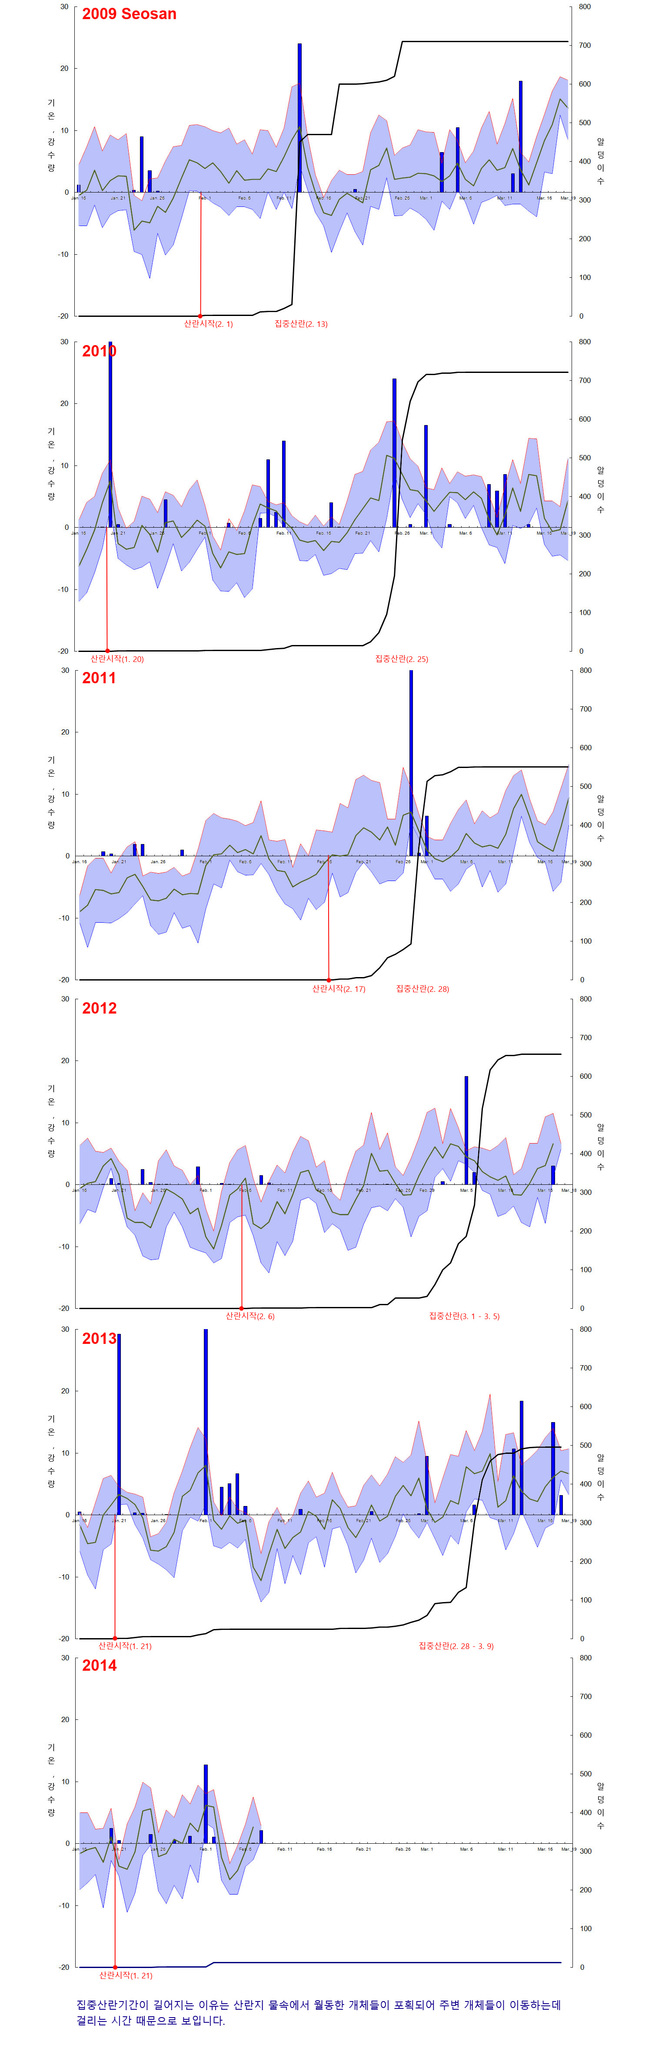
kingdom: Animalia
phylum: Chordata
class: Amphibia
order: Anura
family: Ranidae
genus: Rana
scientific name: Rana uenoi
